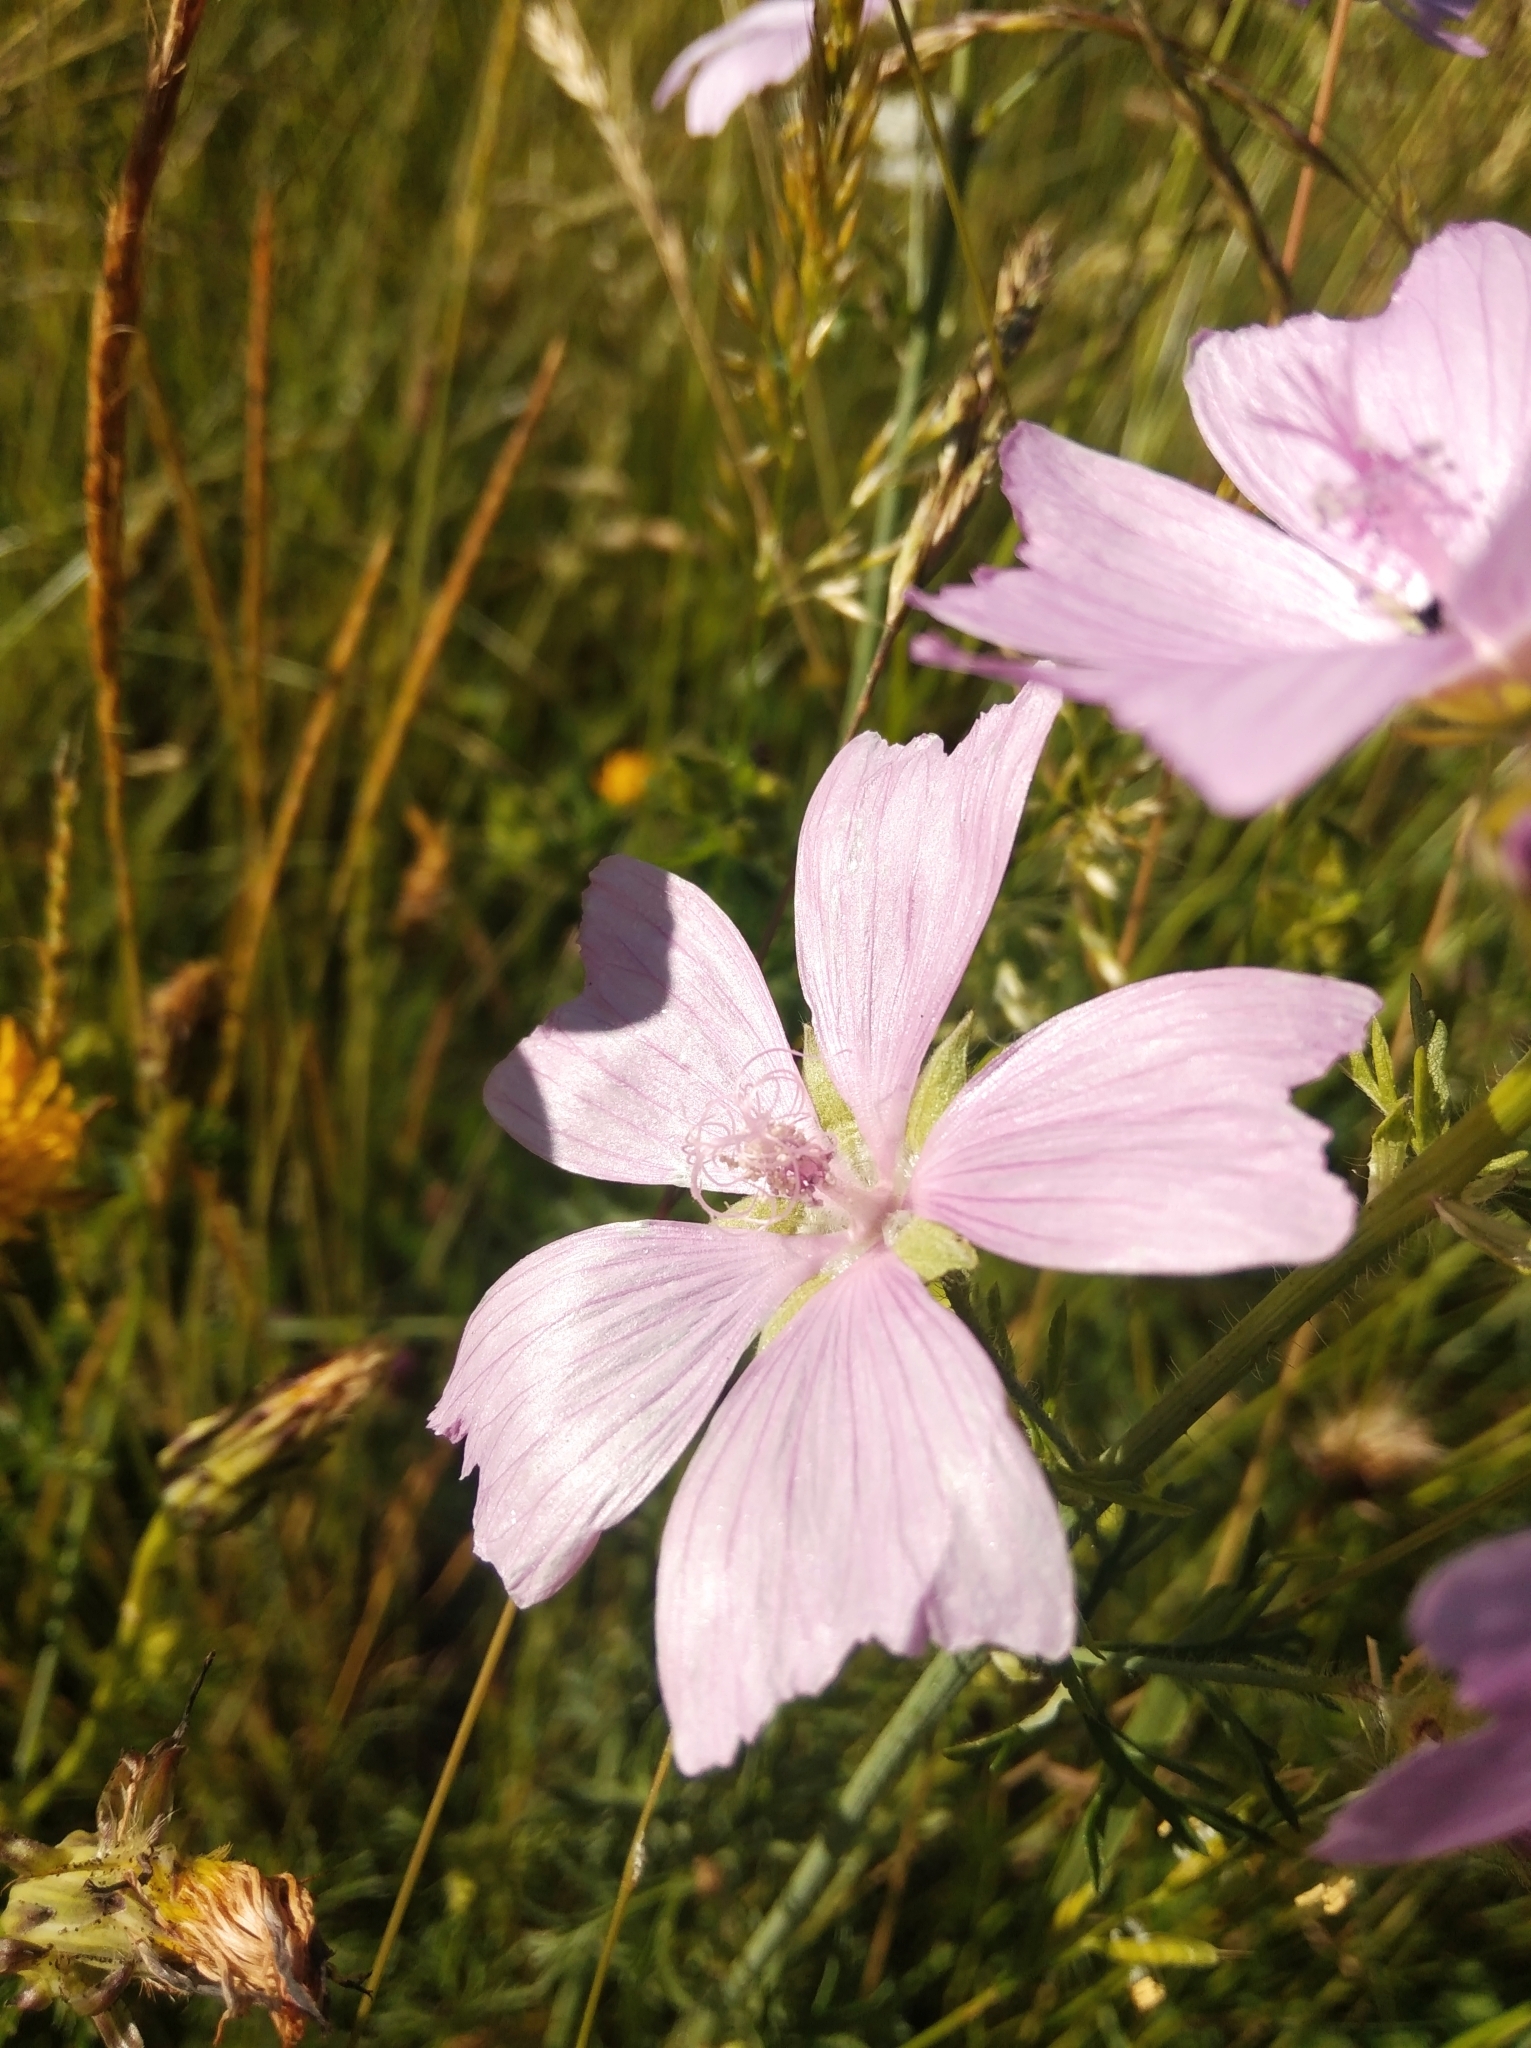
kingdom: Plantae
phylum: Tracheophyta
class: Magnoliopsida
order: Malvales
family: Malvaceae
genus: Malva
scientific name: Malva moschata
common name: Musk mallow
